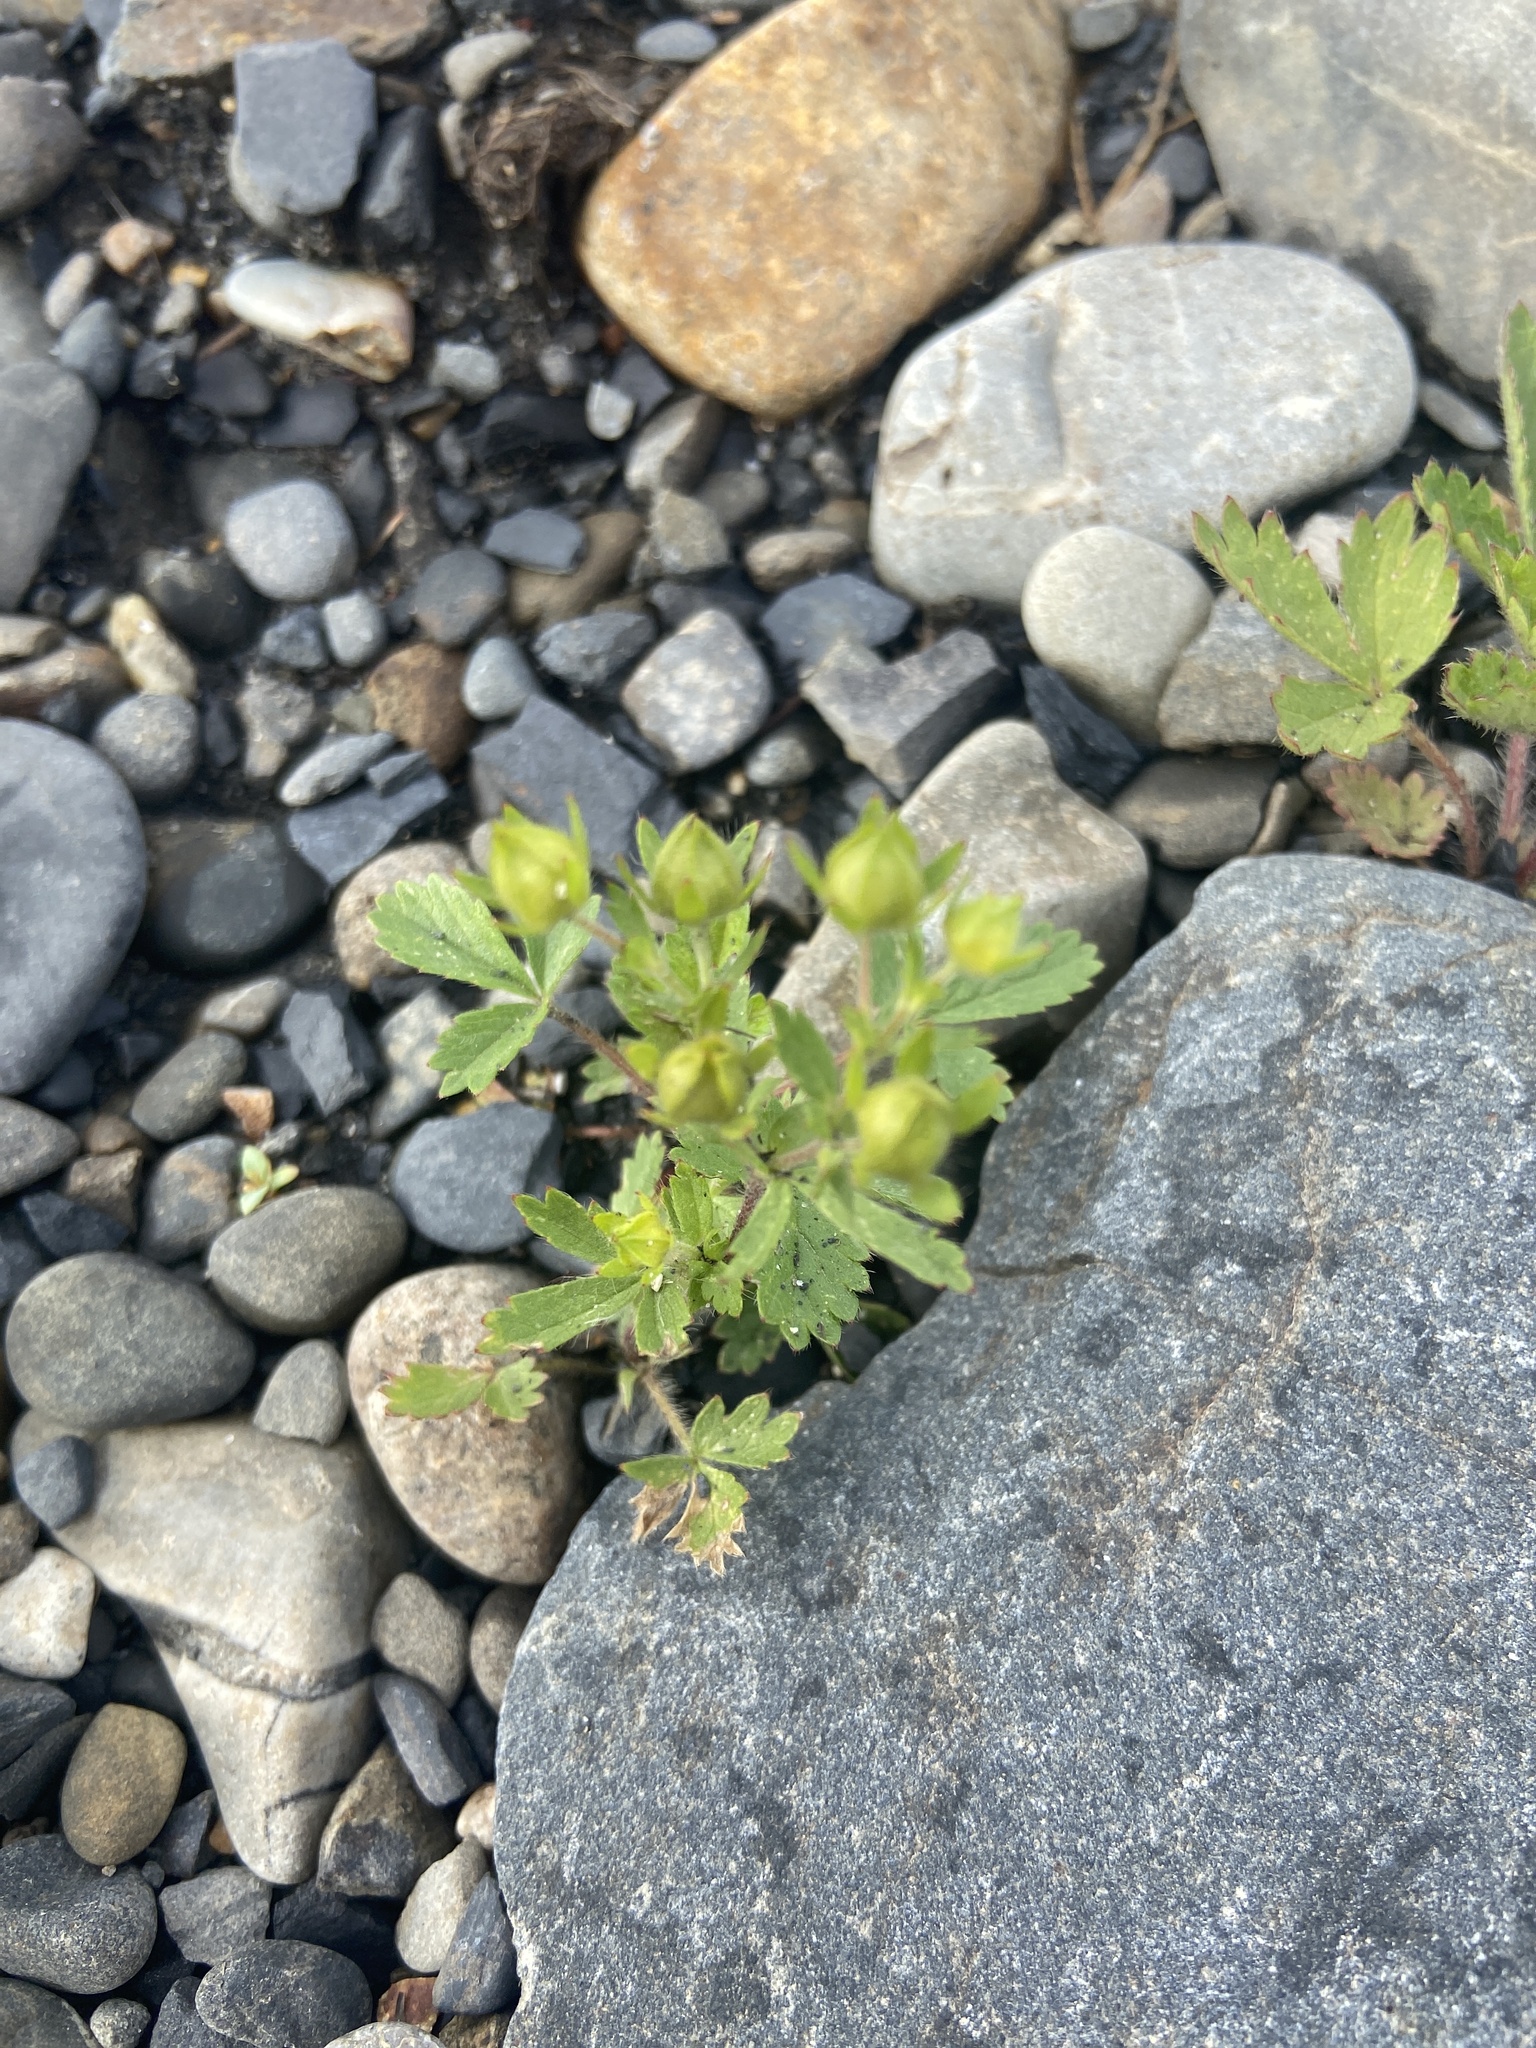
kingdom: Plantae
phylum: Tracheophyta
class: Magnoliopsida
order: Rosales
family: Rosaceae
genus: Potentilla
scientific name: Potentilla norvegica
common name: Ternate-leaved cinquefoil
